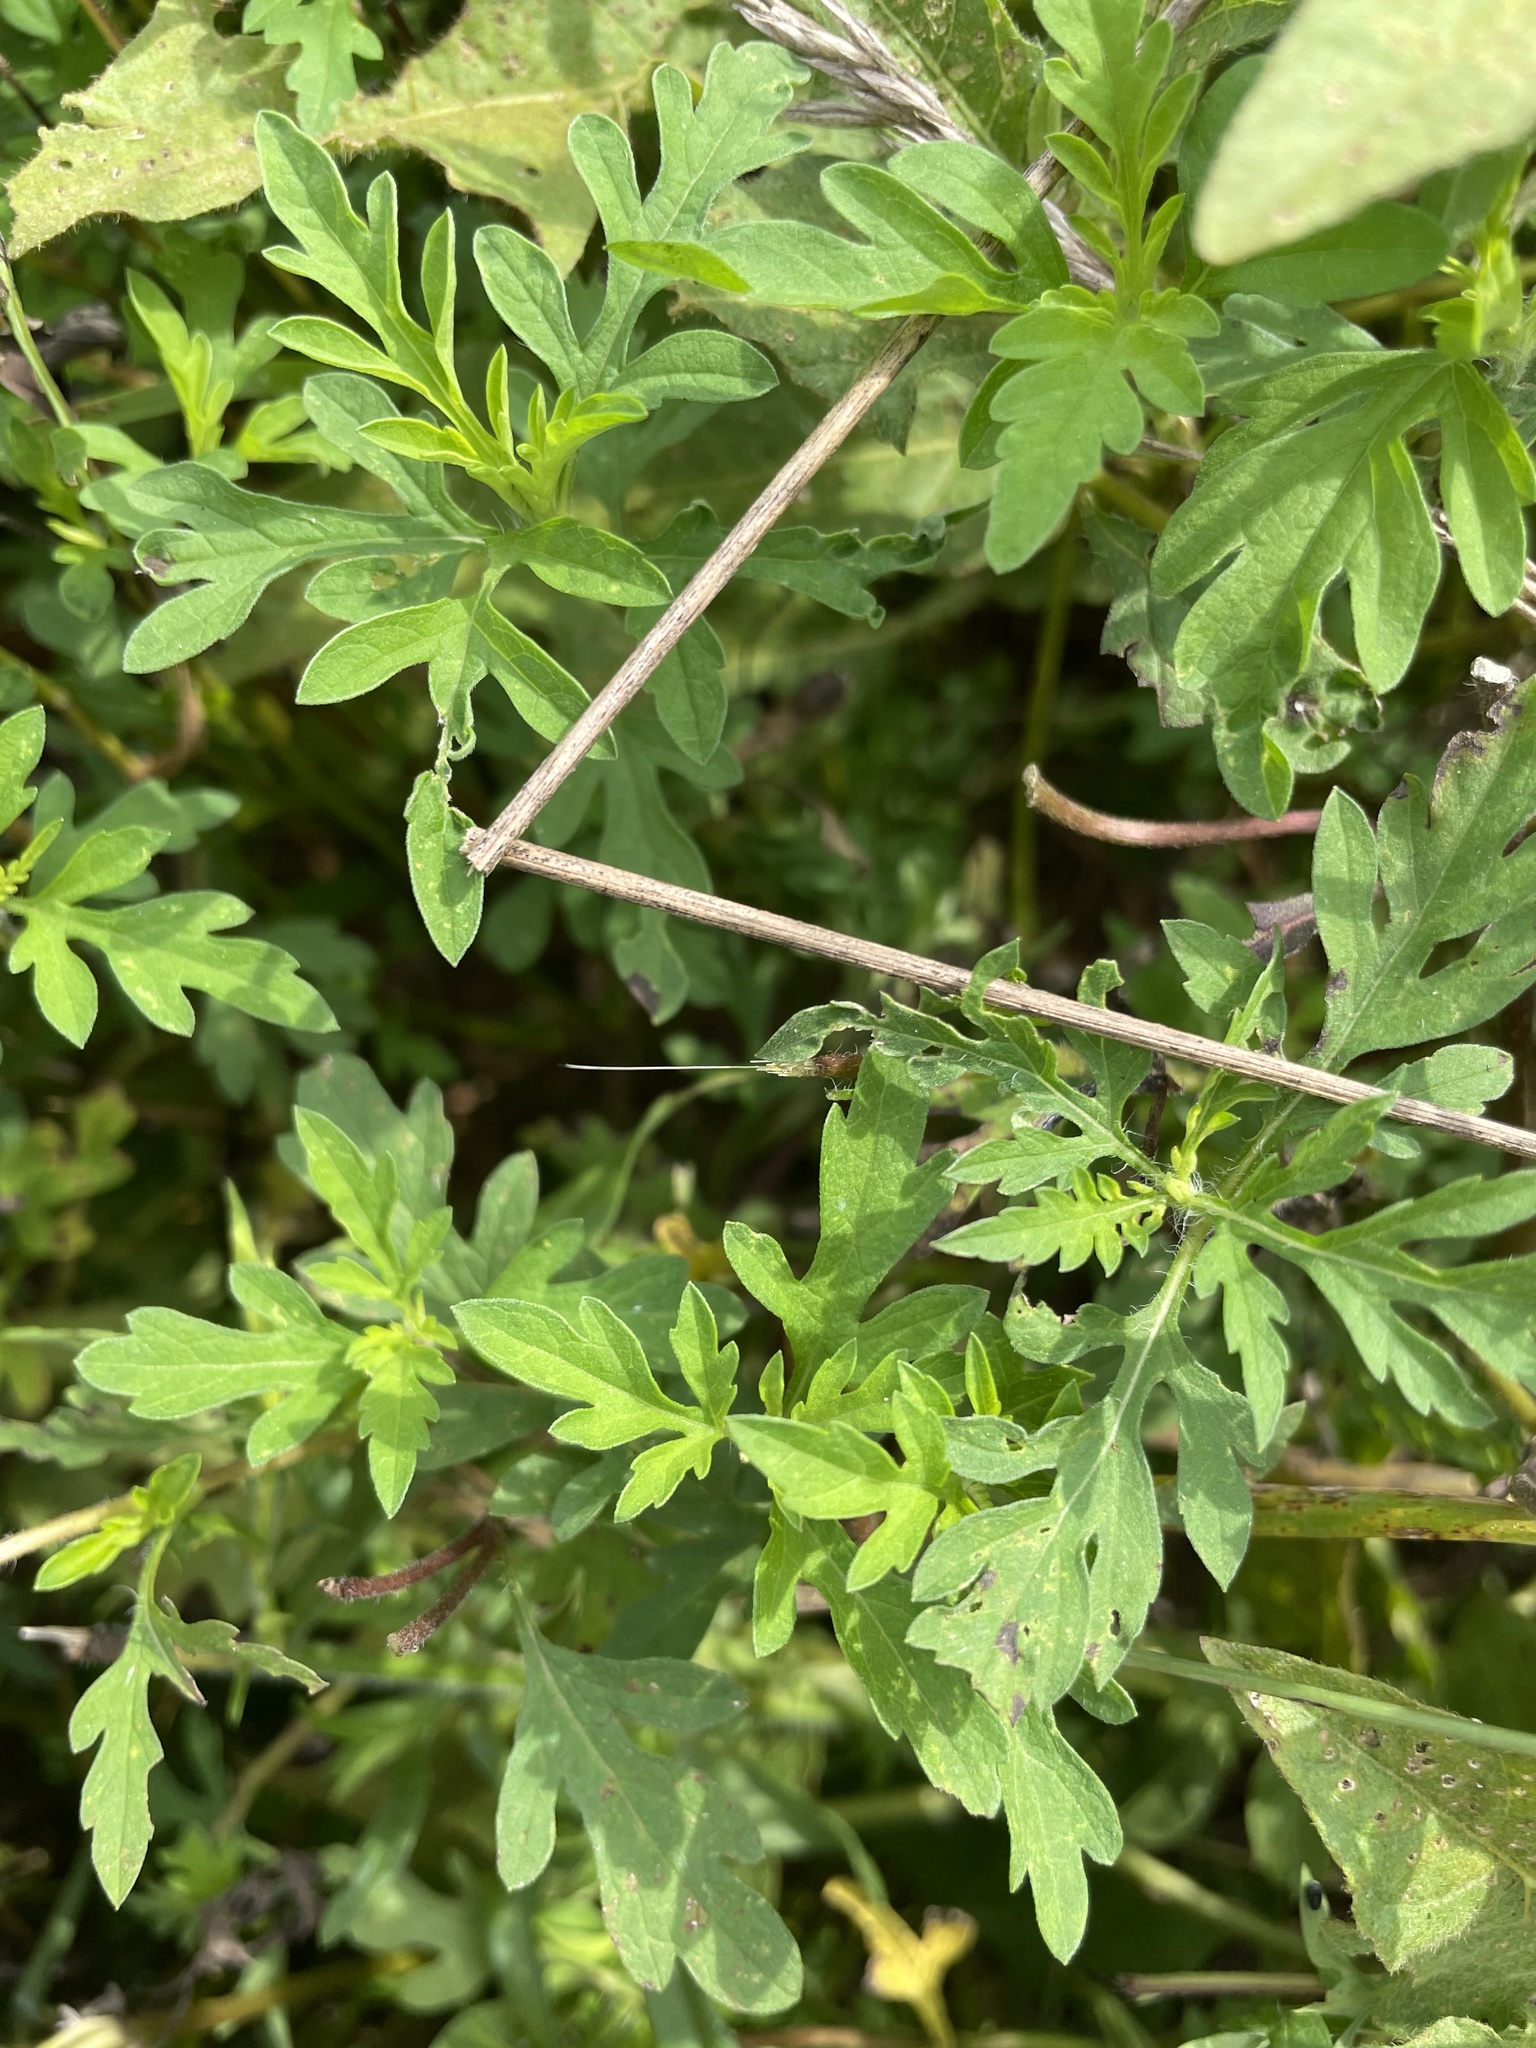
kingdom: Plantae
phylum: Tracheophyta
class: Magnoliopsida
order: Asterales
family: Asteraceae
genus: Ambrosia
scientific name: Ambrosia artemisiifolia
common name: Annual ragweed
